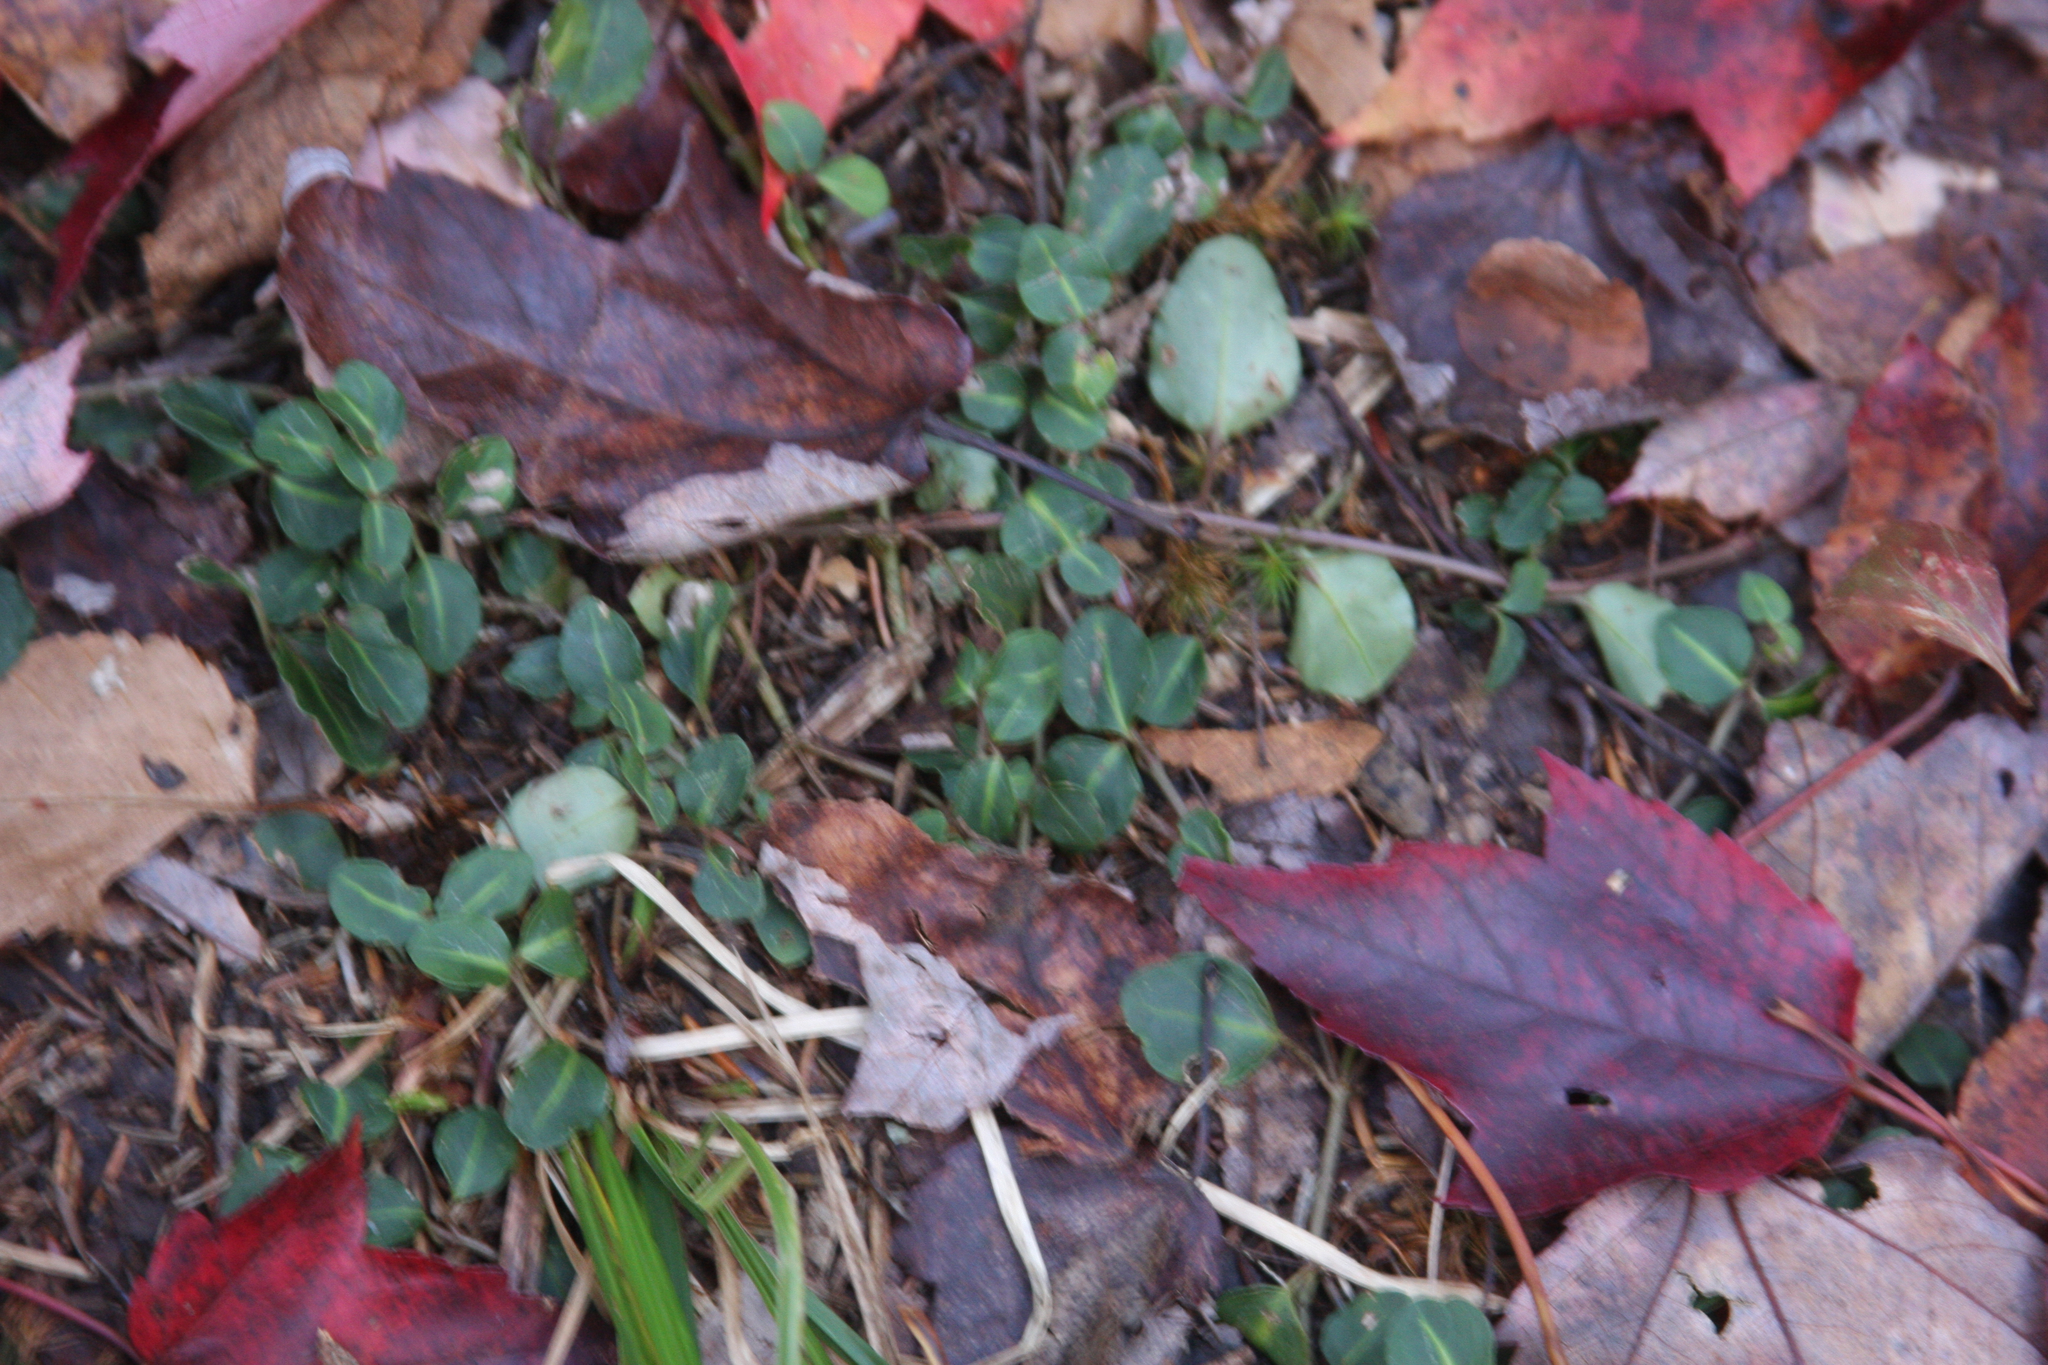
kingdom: Plantae
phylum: Tracheophyta
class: Magnoliopsida
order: Gentianales
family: Rubiaceae
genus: Mitchella
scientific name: Mitchella repens
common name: Partridge-berry
